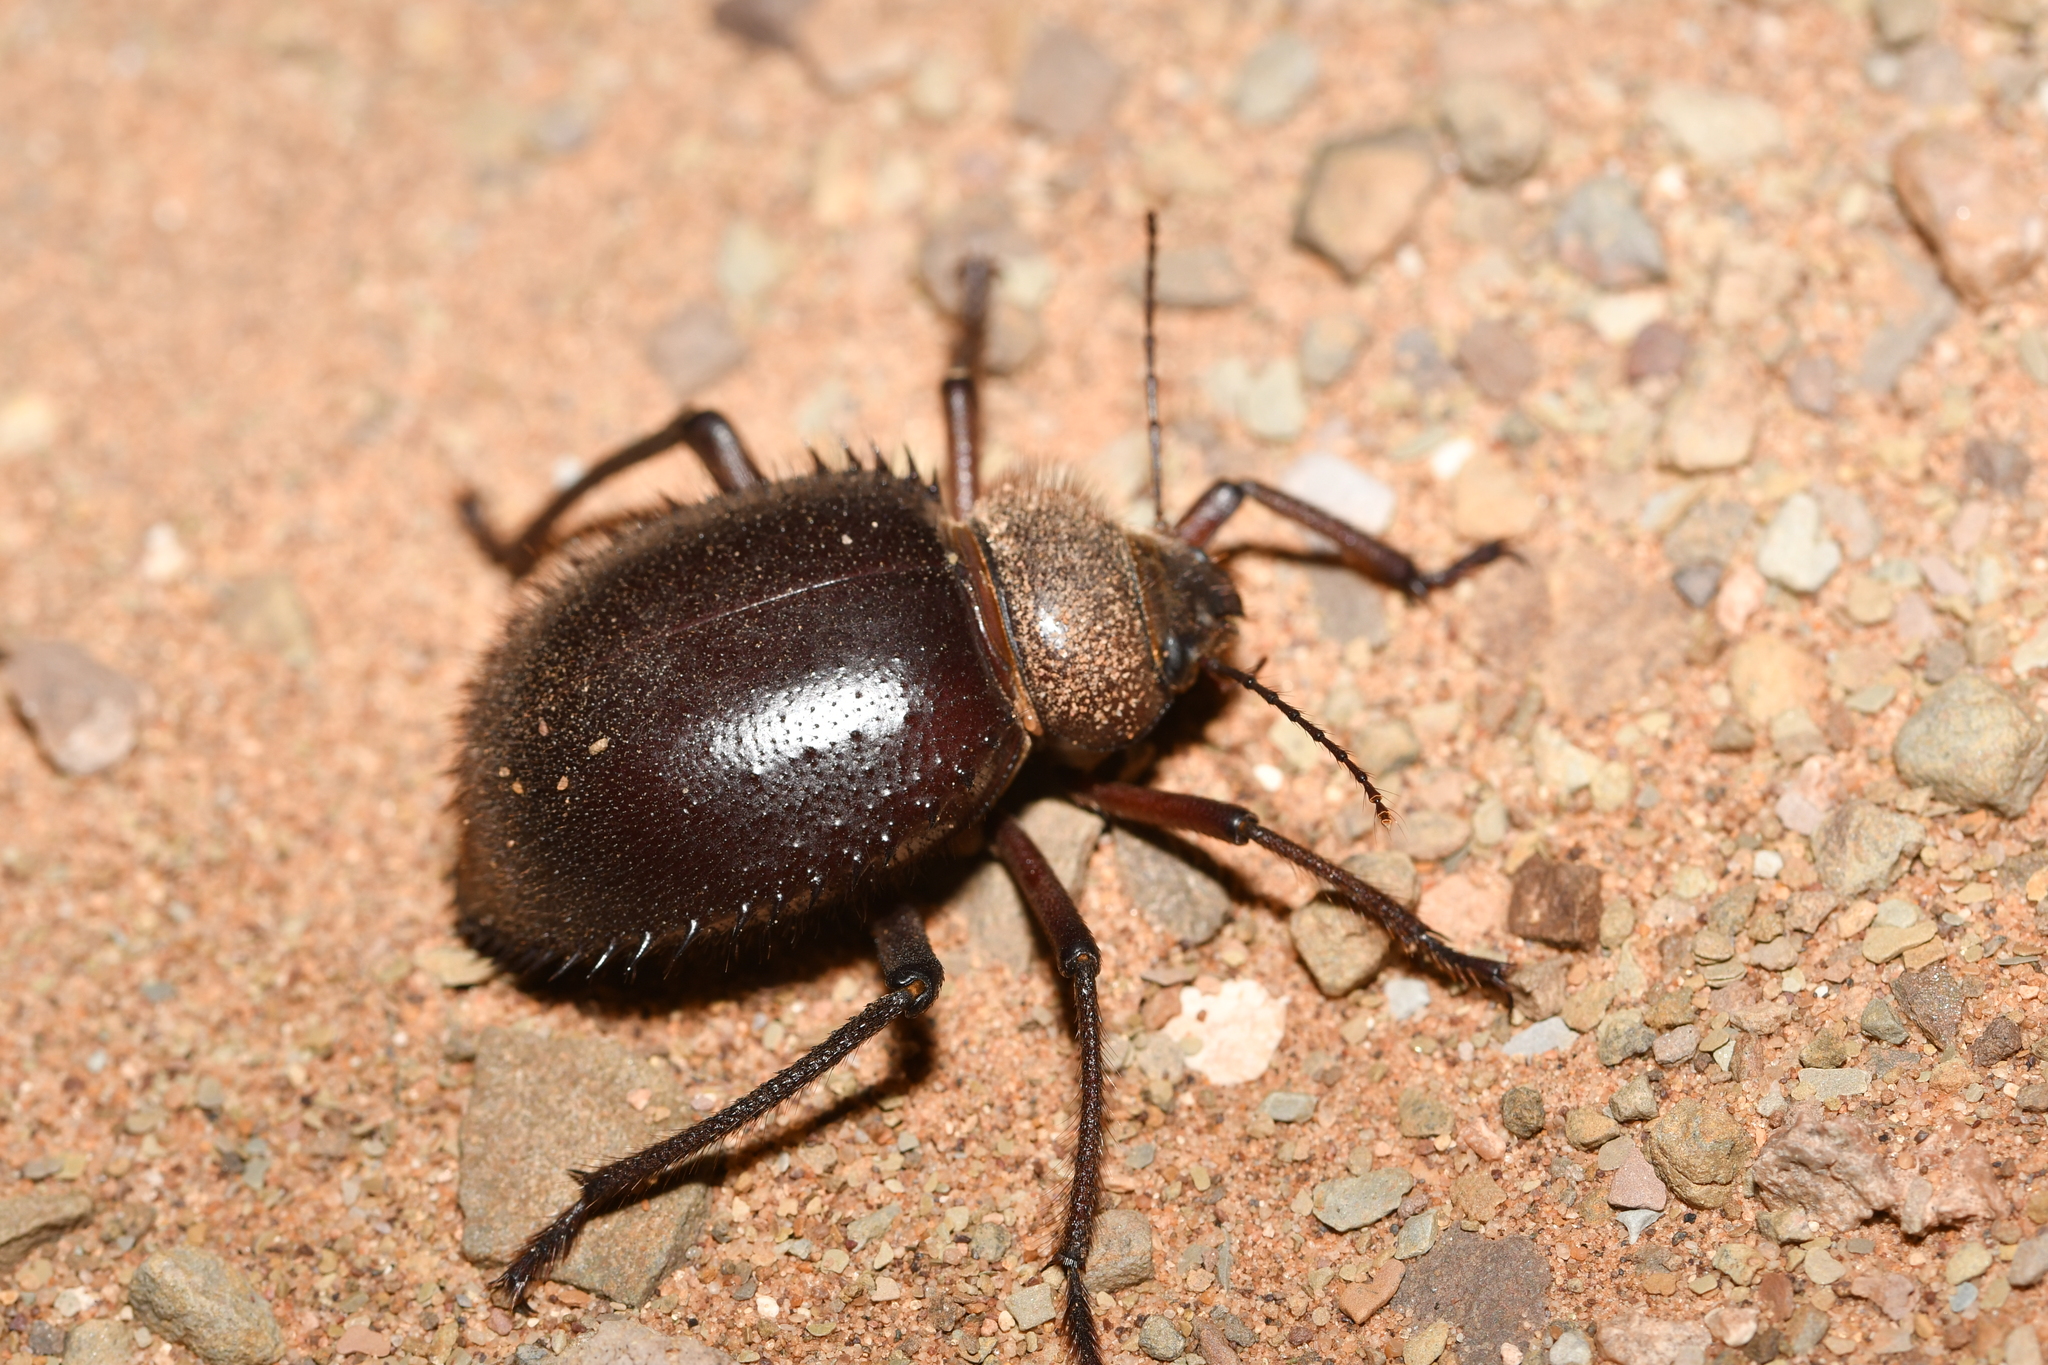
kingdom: Animalia
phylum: Arthropoda
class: Insecta
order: Coleoptera
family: Tenebrionidae
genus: Prionotheca
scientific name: Prionotheca coronata
